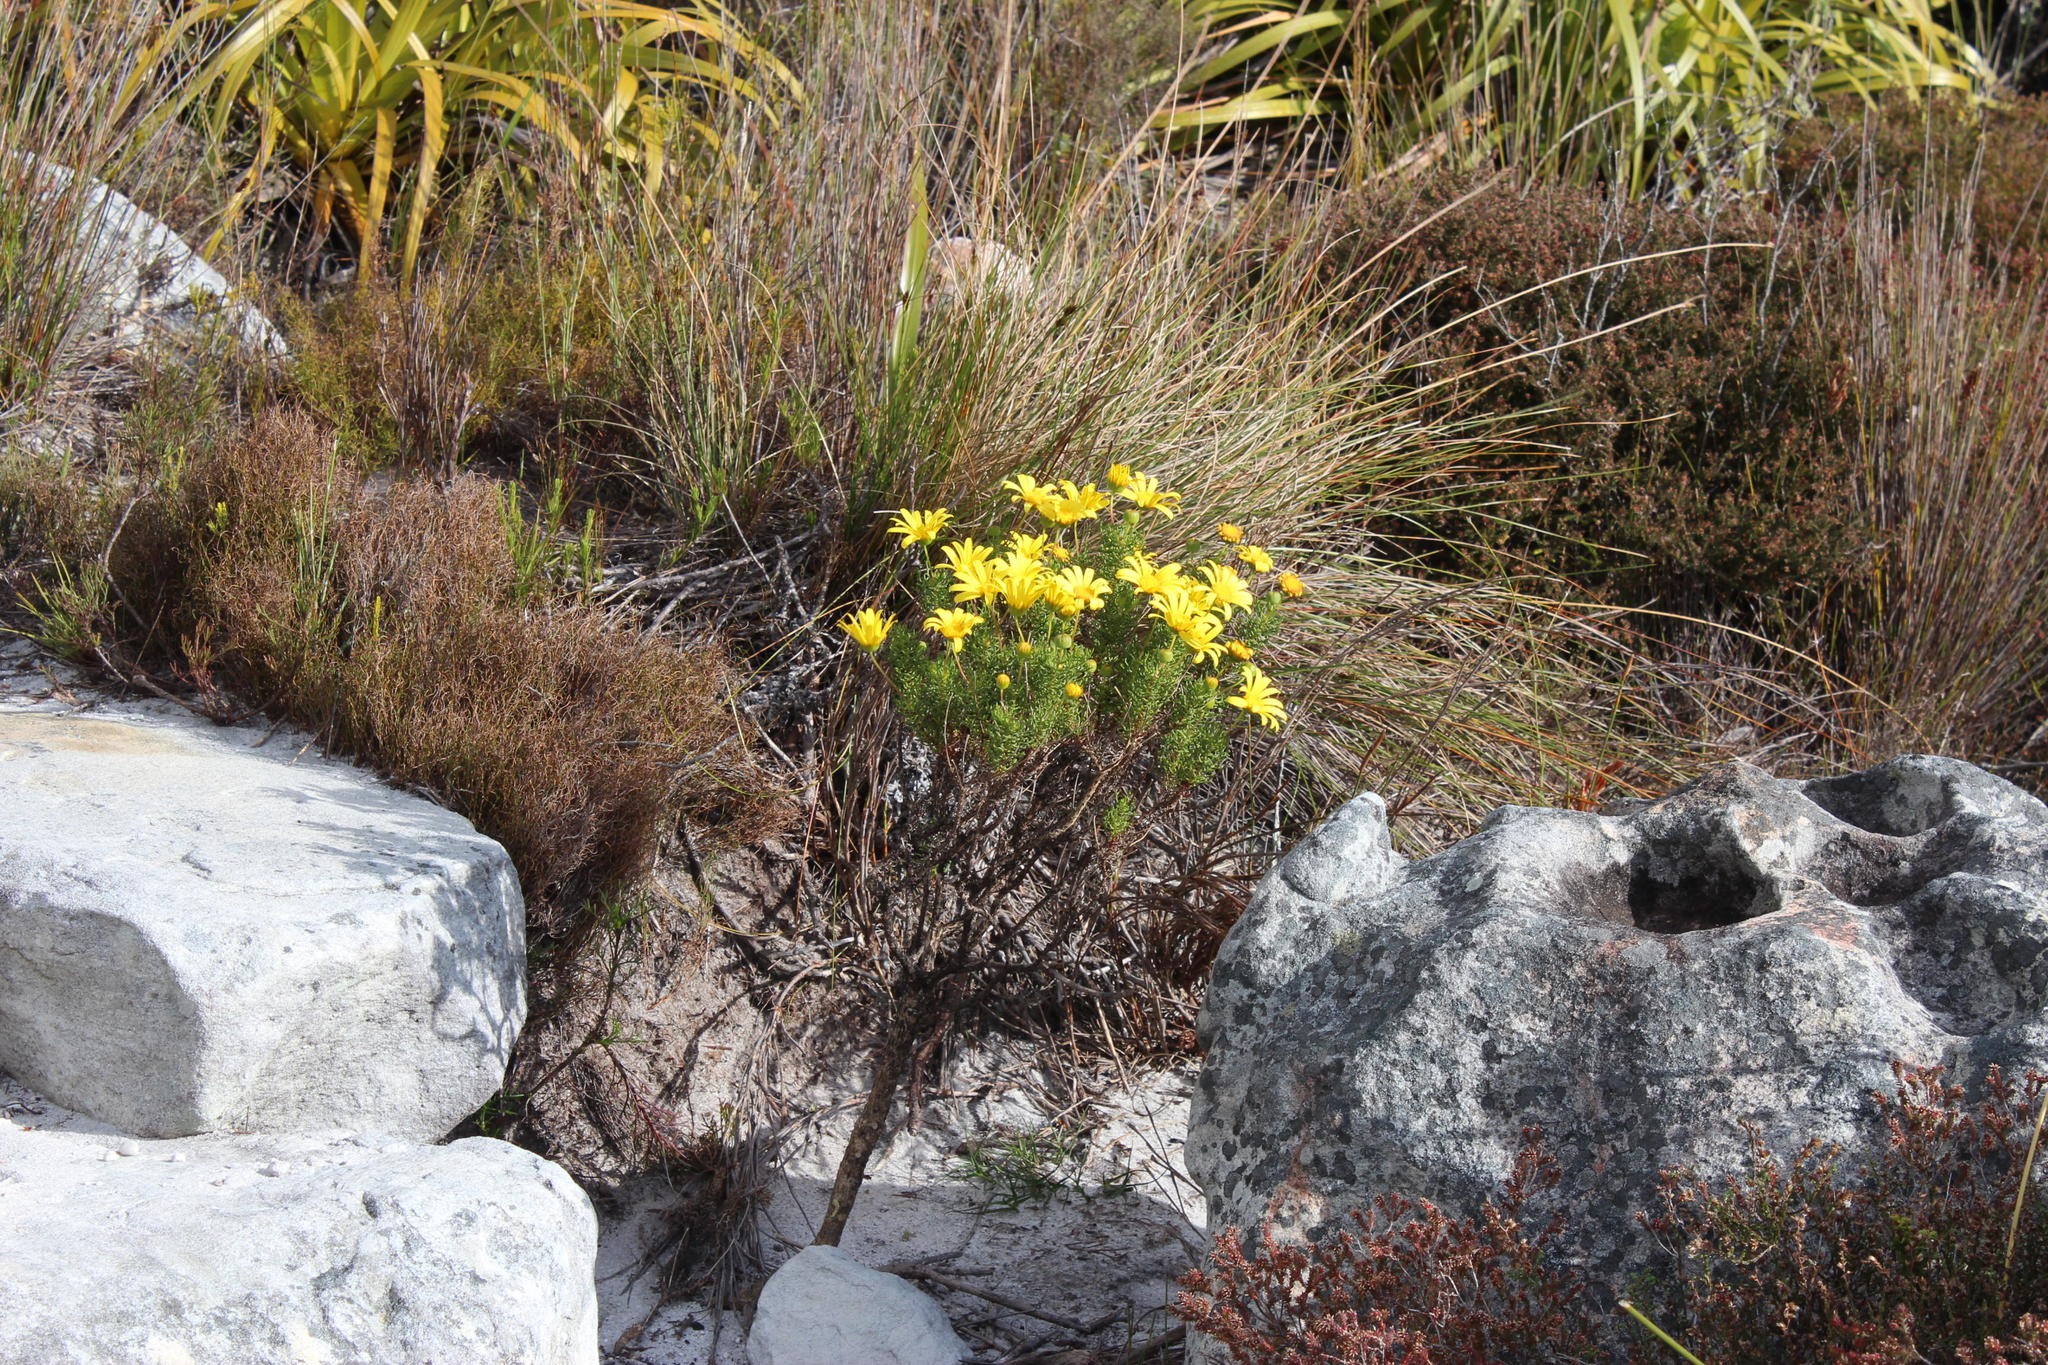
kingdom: Plantae
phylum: Tracheophyta
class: Magnoliopsida
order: Asterales
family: Asteraceae
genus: Euryops
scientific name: Euryops abrotanifolius
